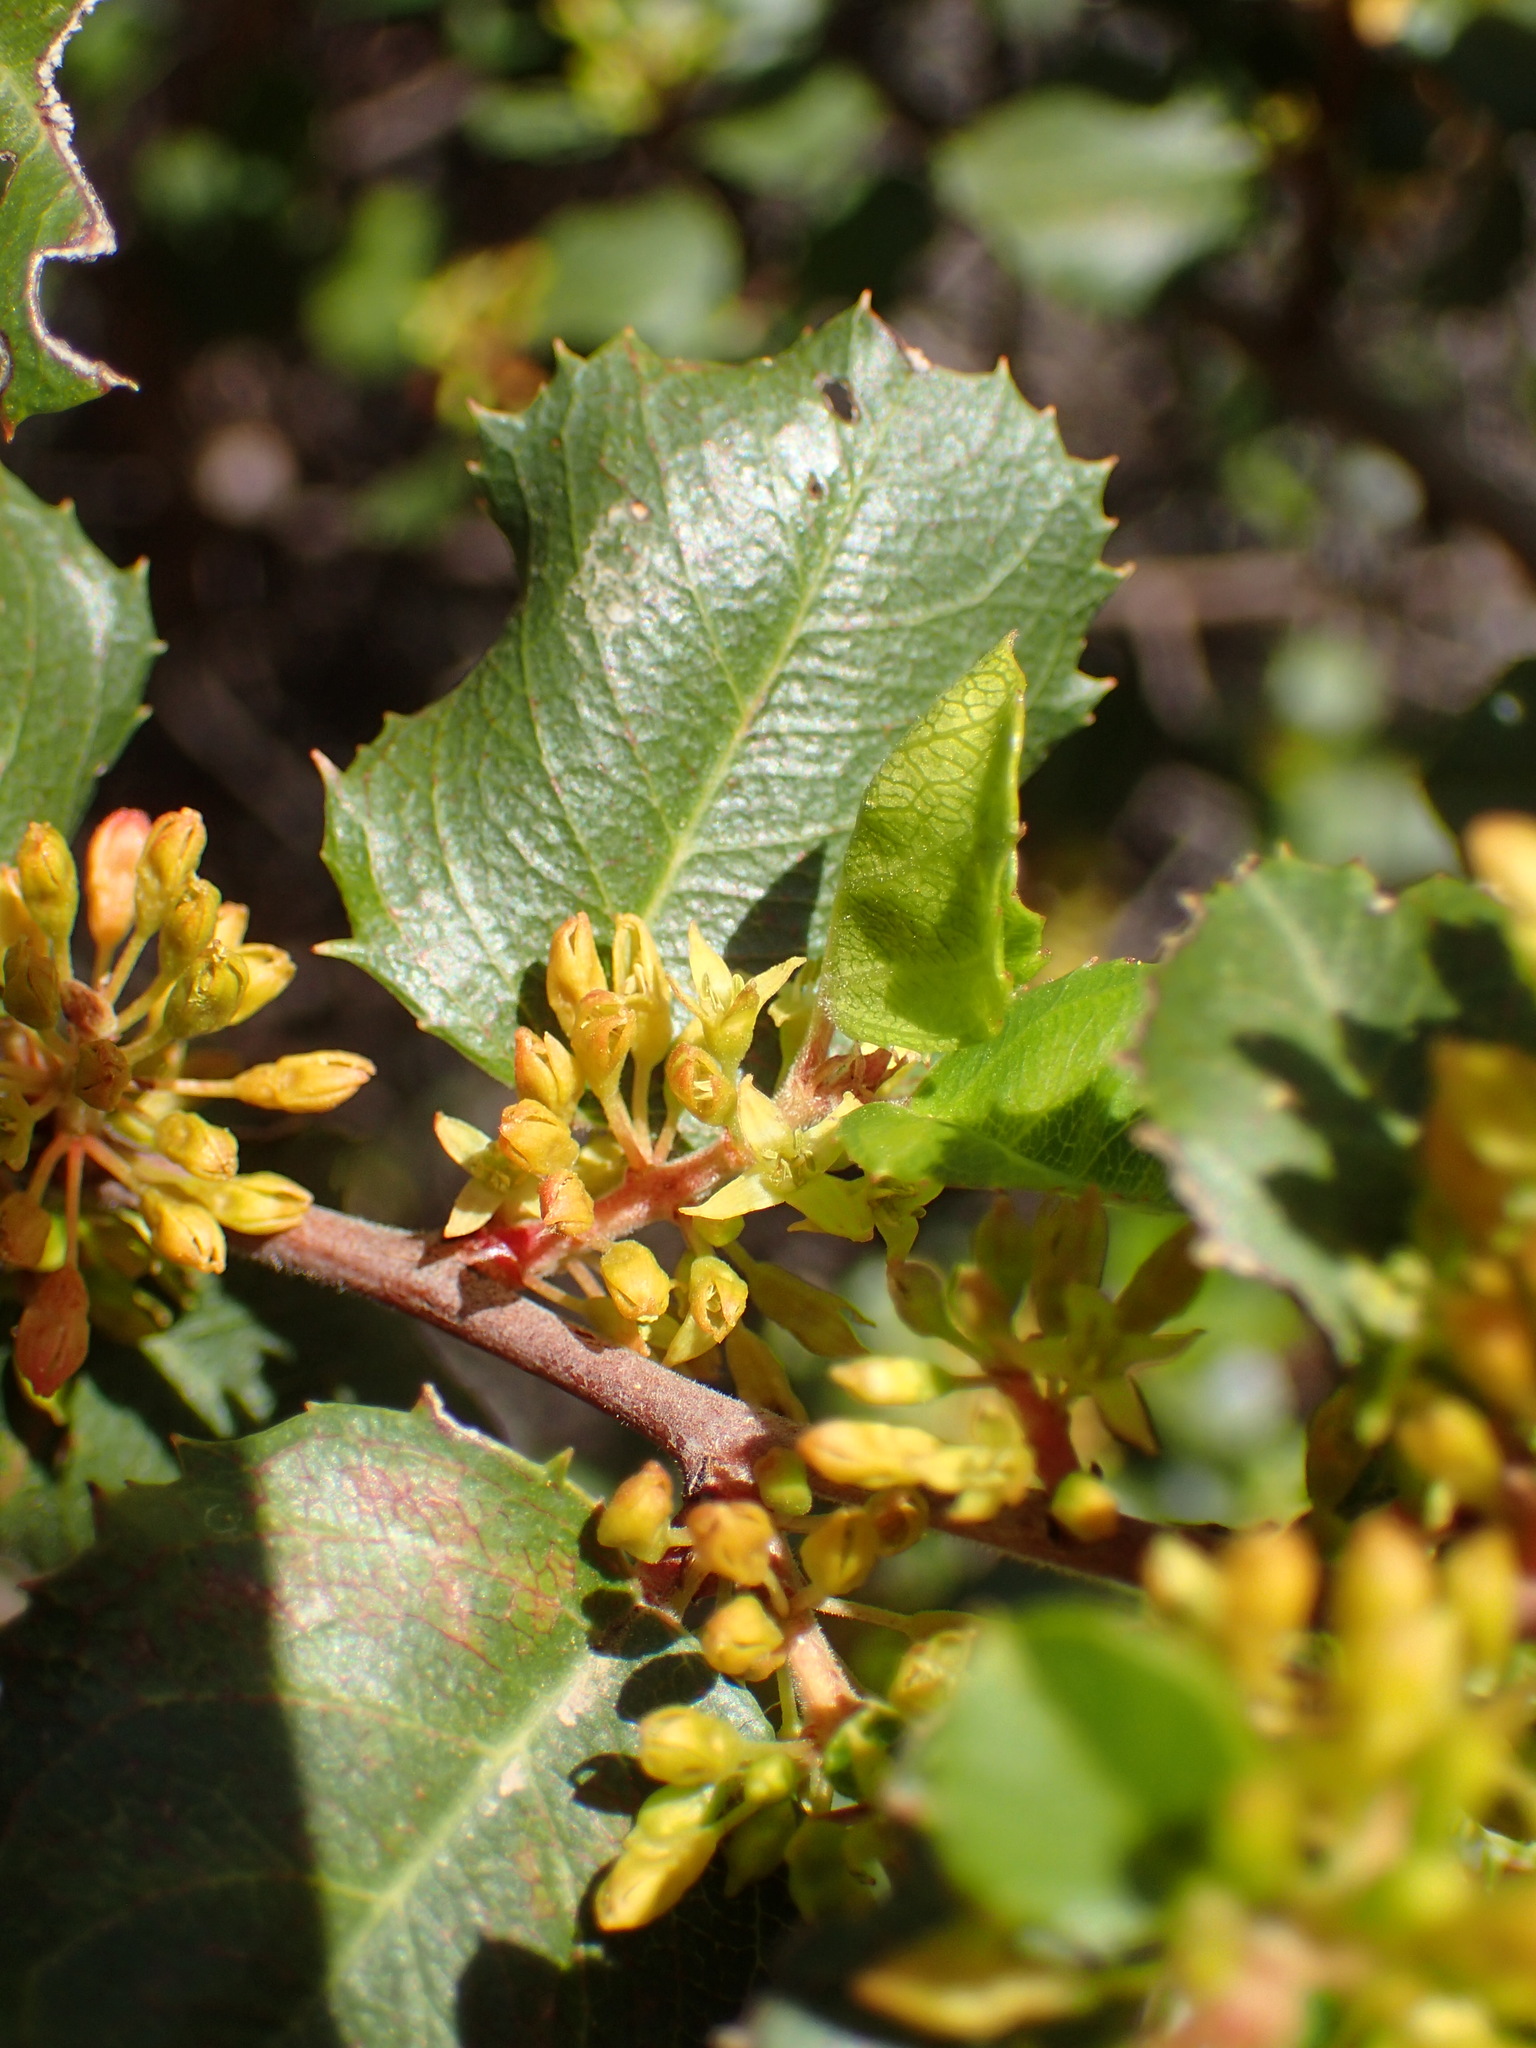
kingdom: Plantae
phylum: Tracheophyta
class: Magnoliopsida
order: Rosales
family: Rhamnaceae
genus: Endotropis
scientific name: Endotropis crocea
